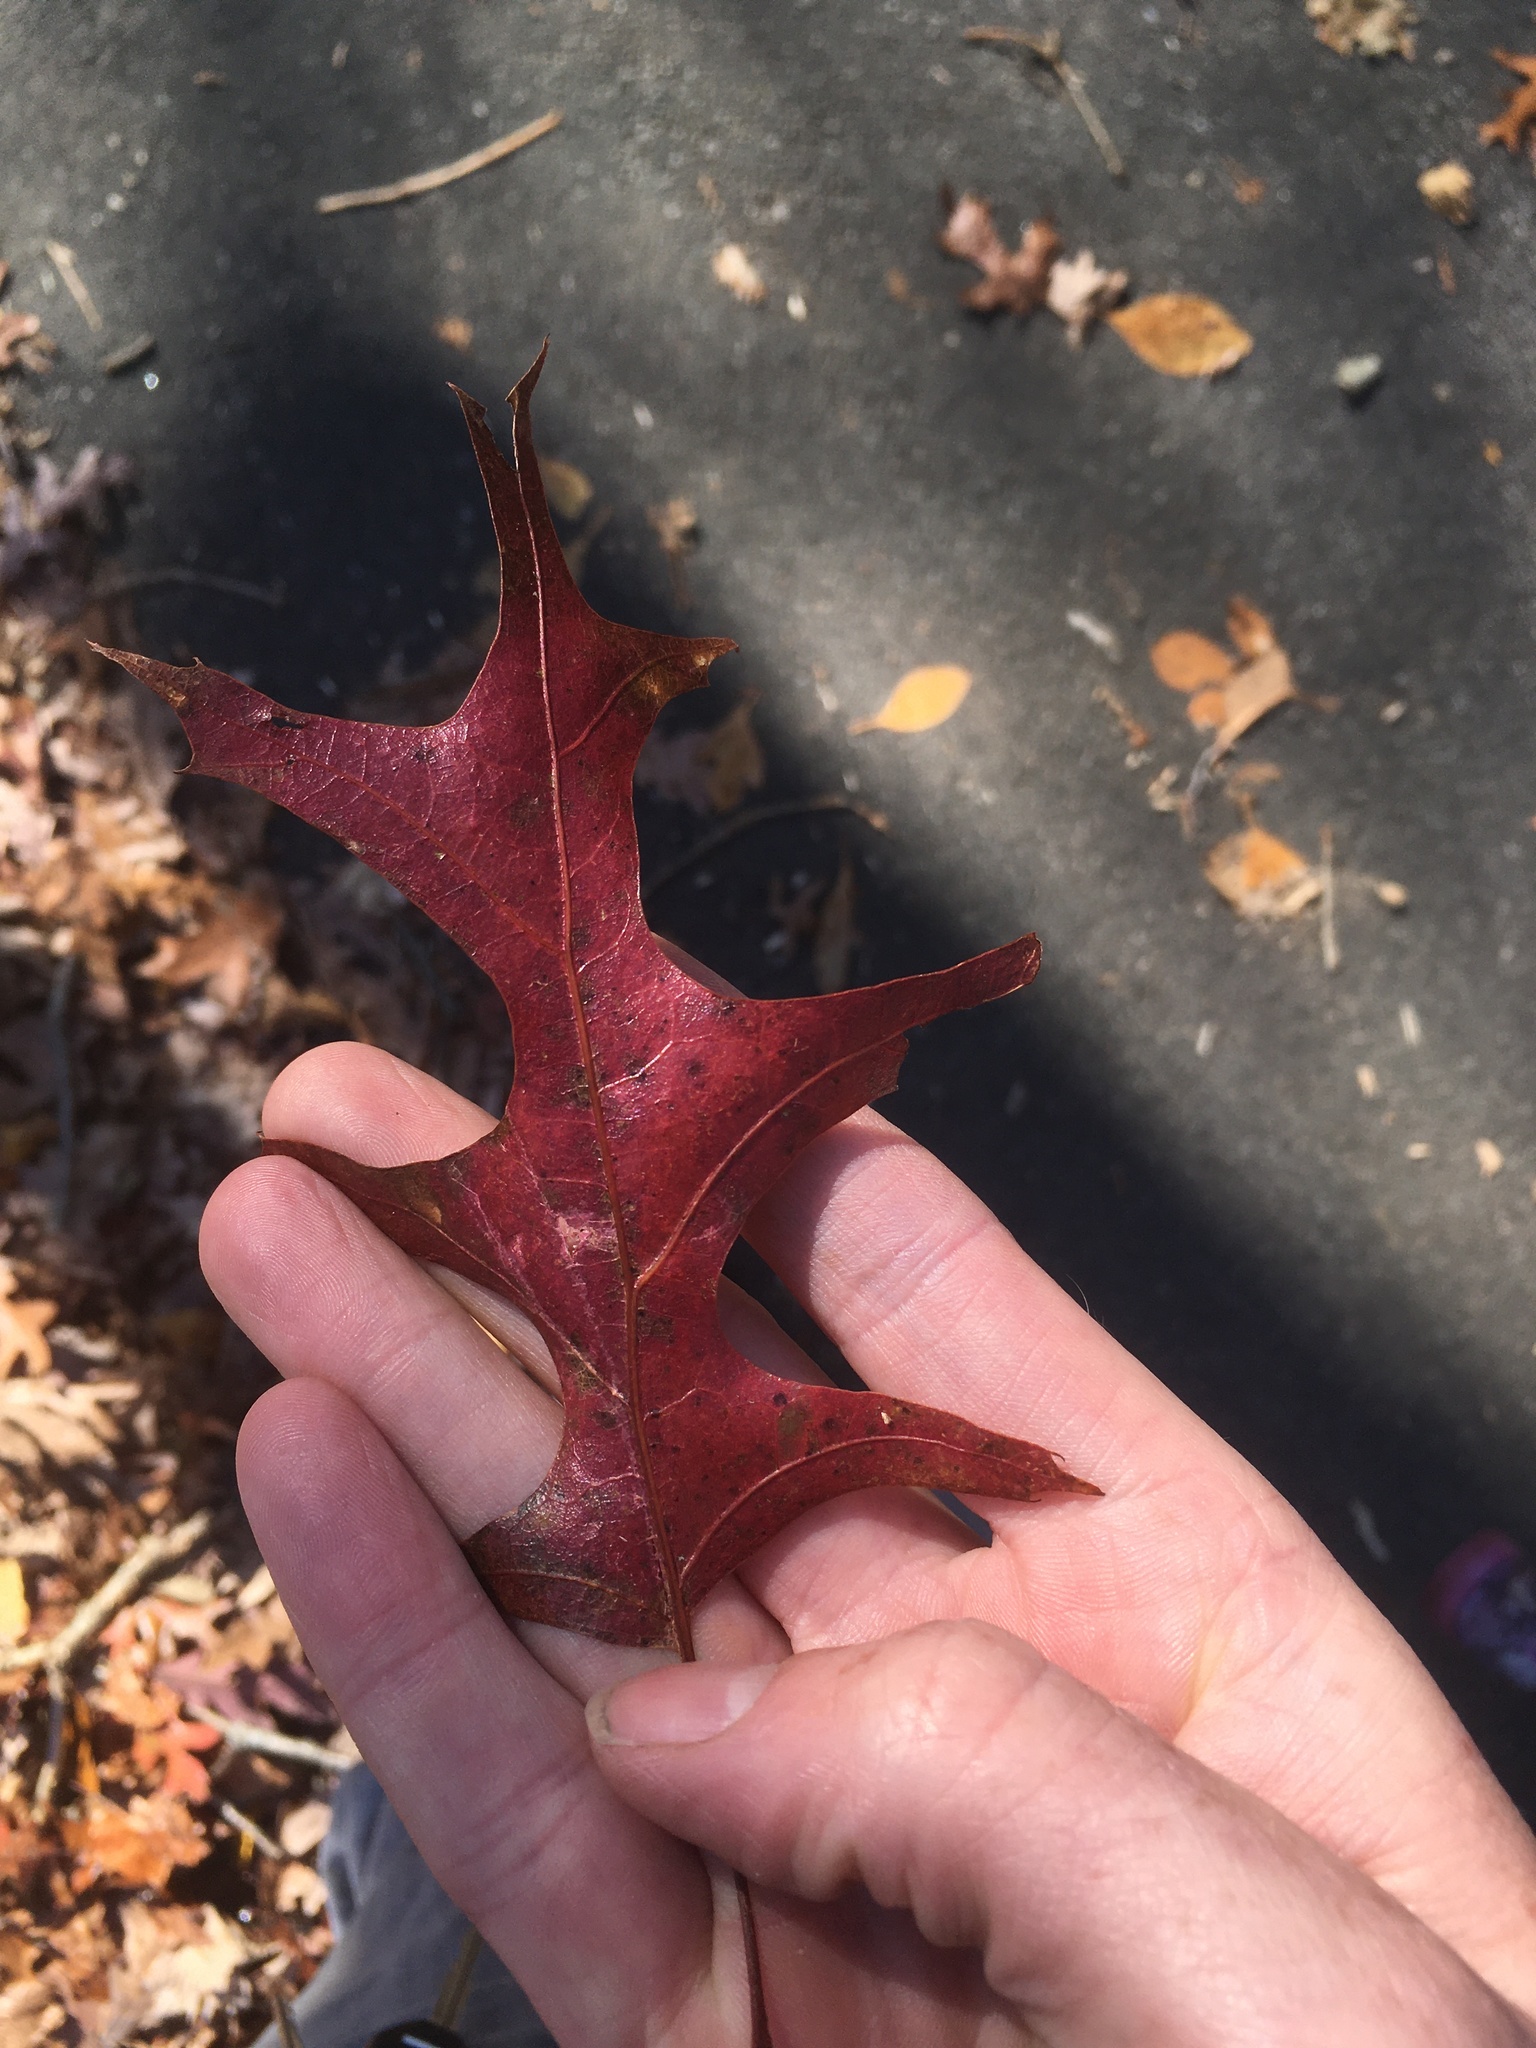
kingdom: Plantae
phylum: Tracheophyta
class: Magnoliopsida
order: Fagales
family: Fagaceae
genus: Quercus
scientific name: Quercus coccinea
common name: Scarlet oak
